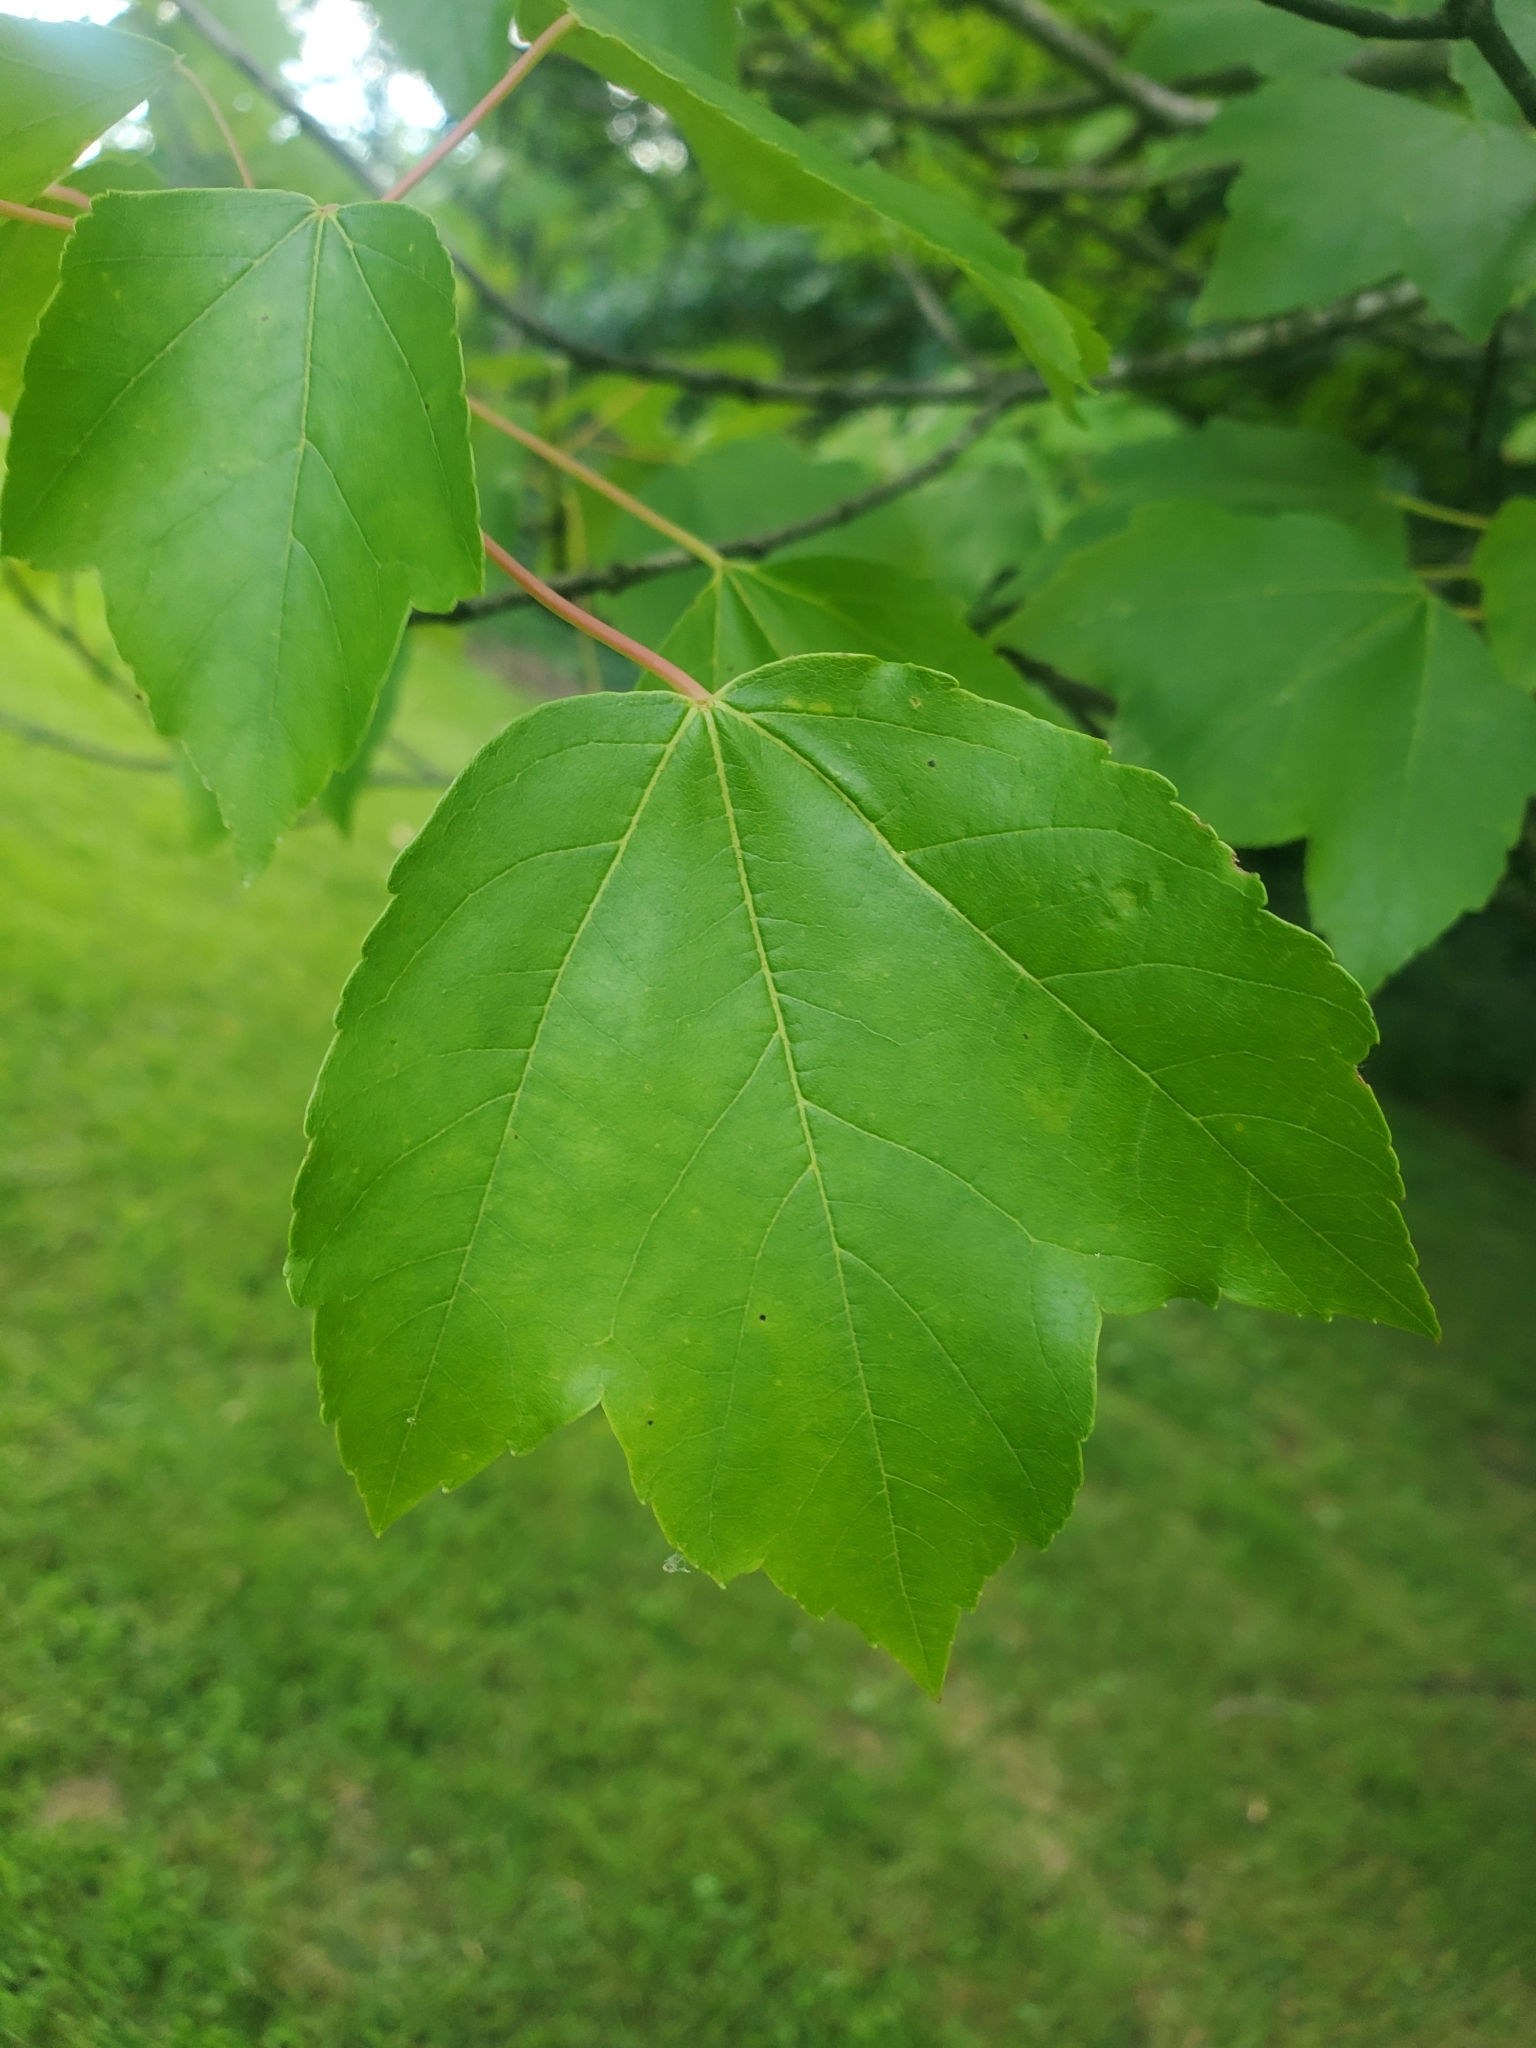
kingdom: Plantae
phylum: Tracheophyta
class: Magnoliopsida
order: Sapindales
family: Sapindaceae
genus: Acer
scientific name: Acer rubrum
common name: Red maple
